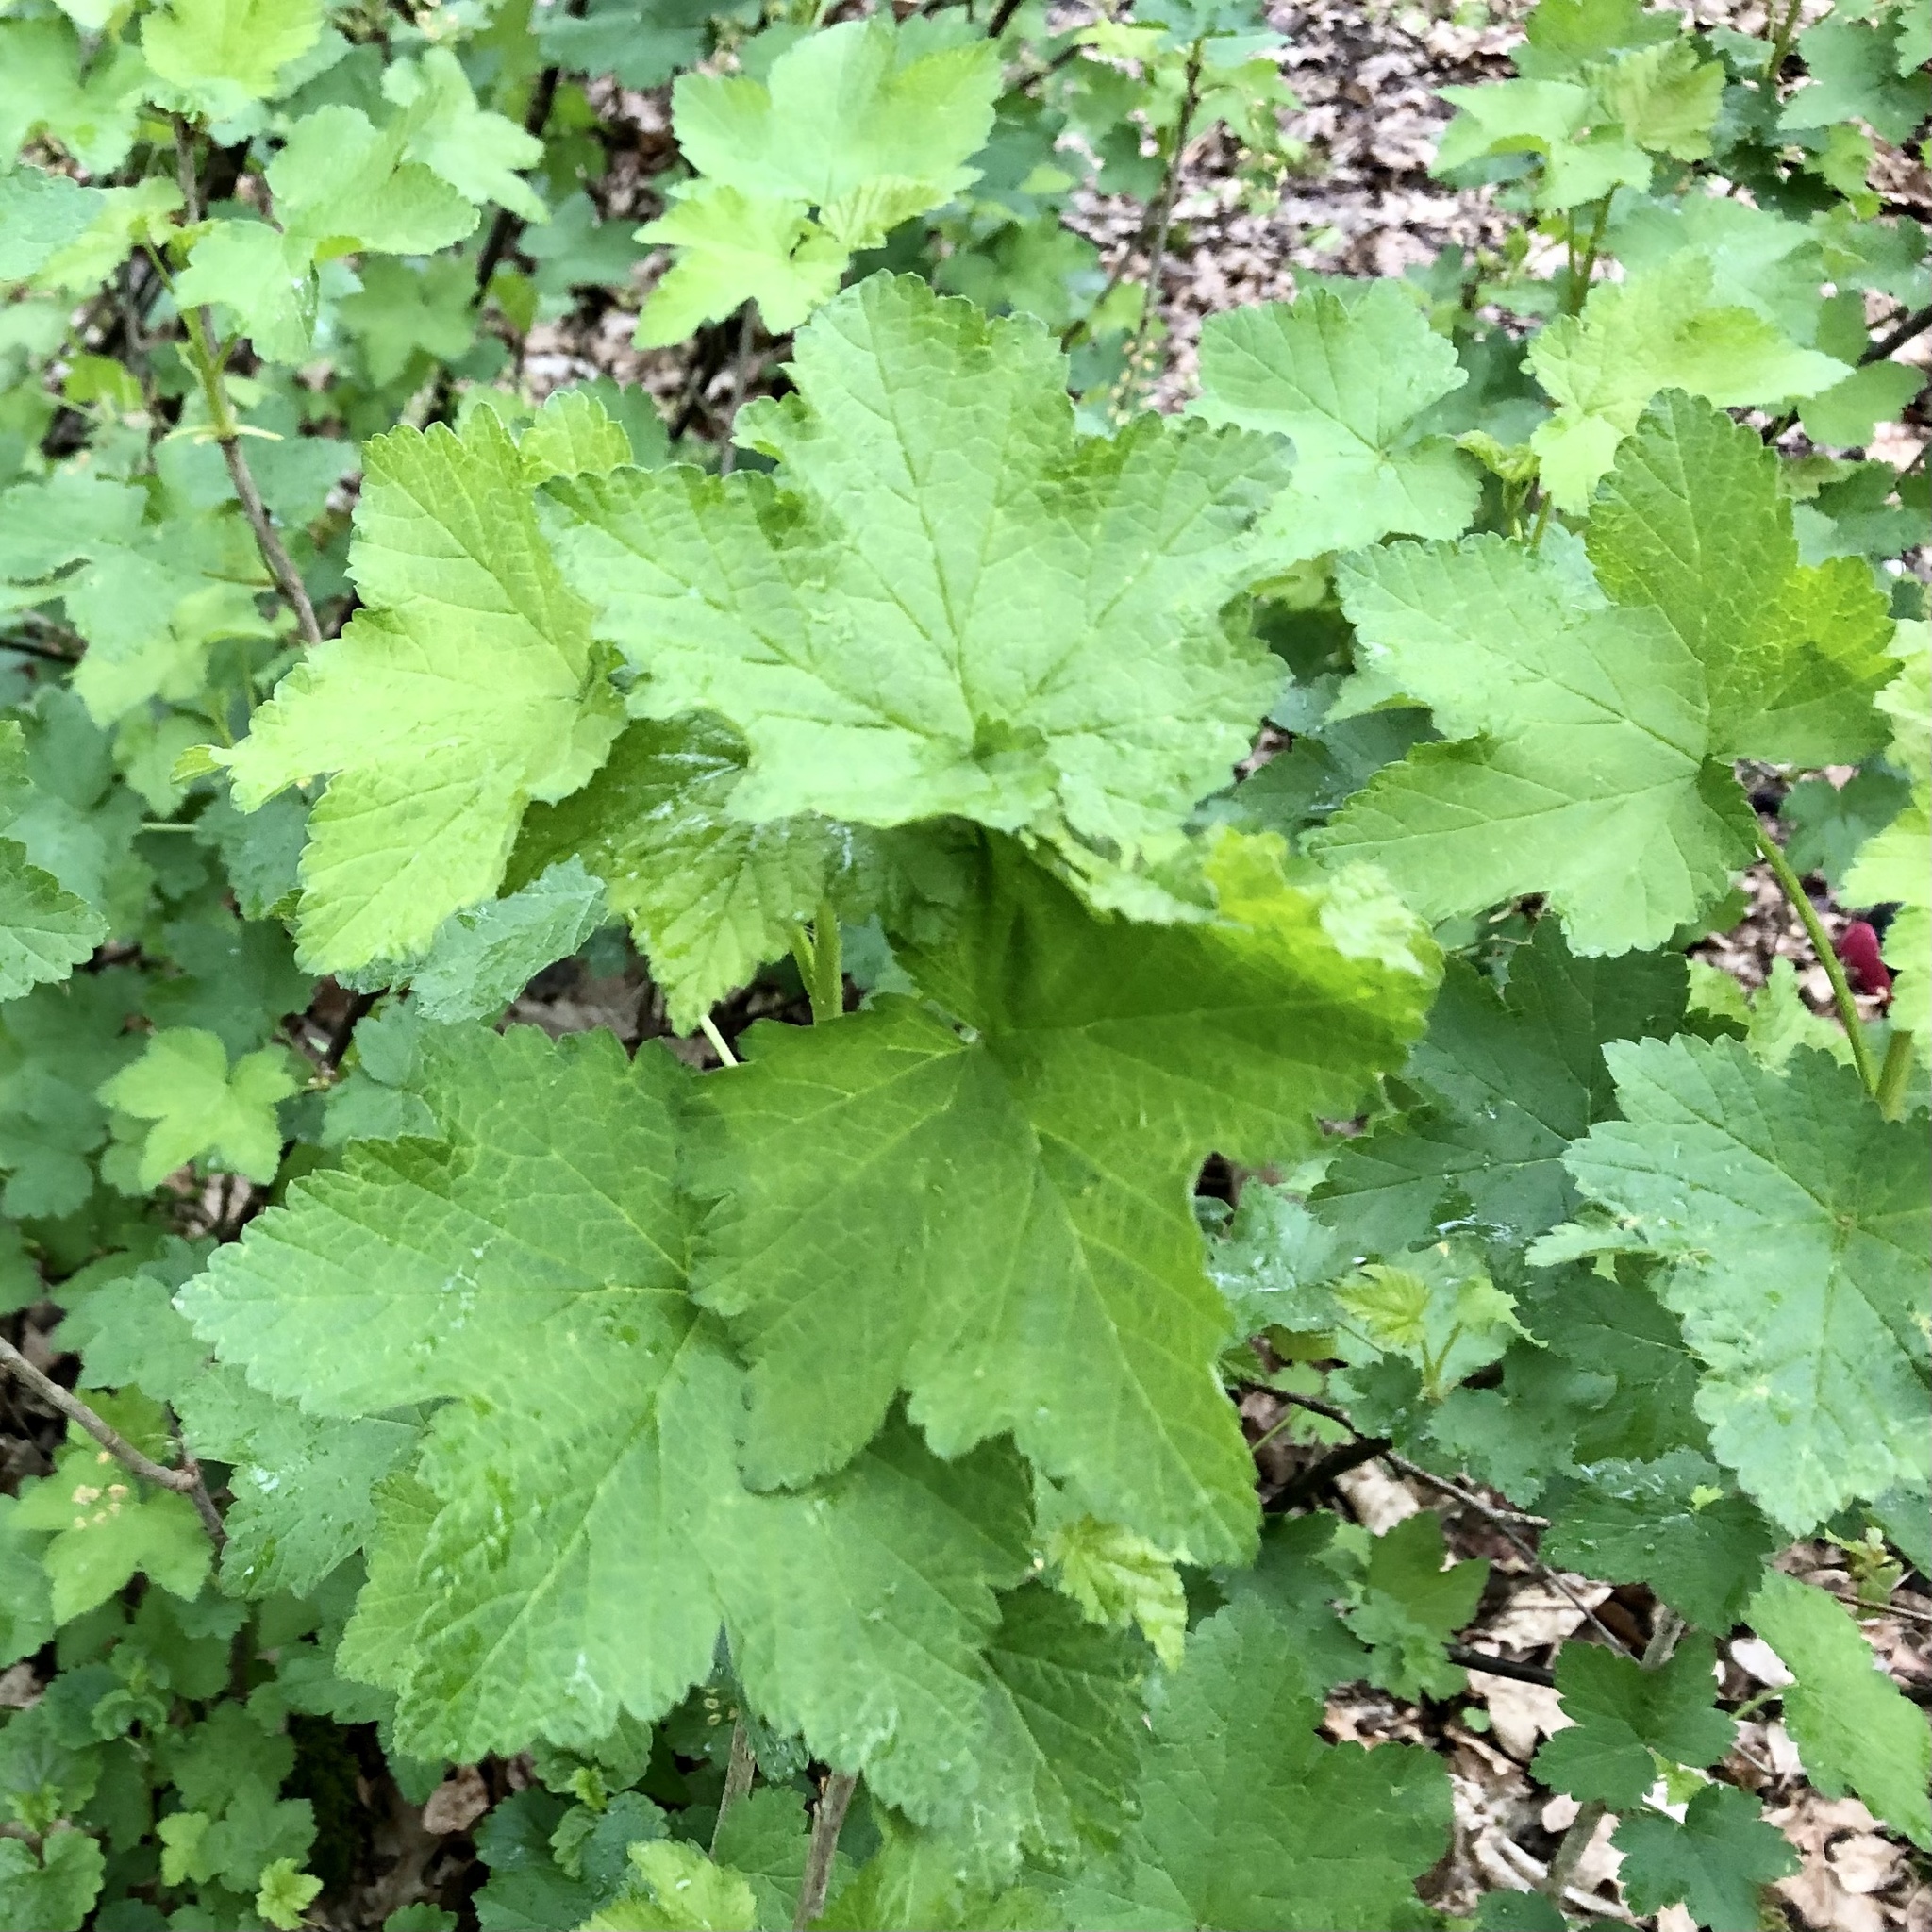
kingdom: Plantae
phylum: Tracheophyta
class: Magnoliopsida
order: Saxifragales
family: Grossulariaceae
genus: Ribes
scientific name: Ribes rubrum
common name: Red currant
